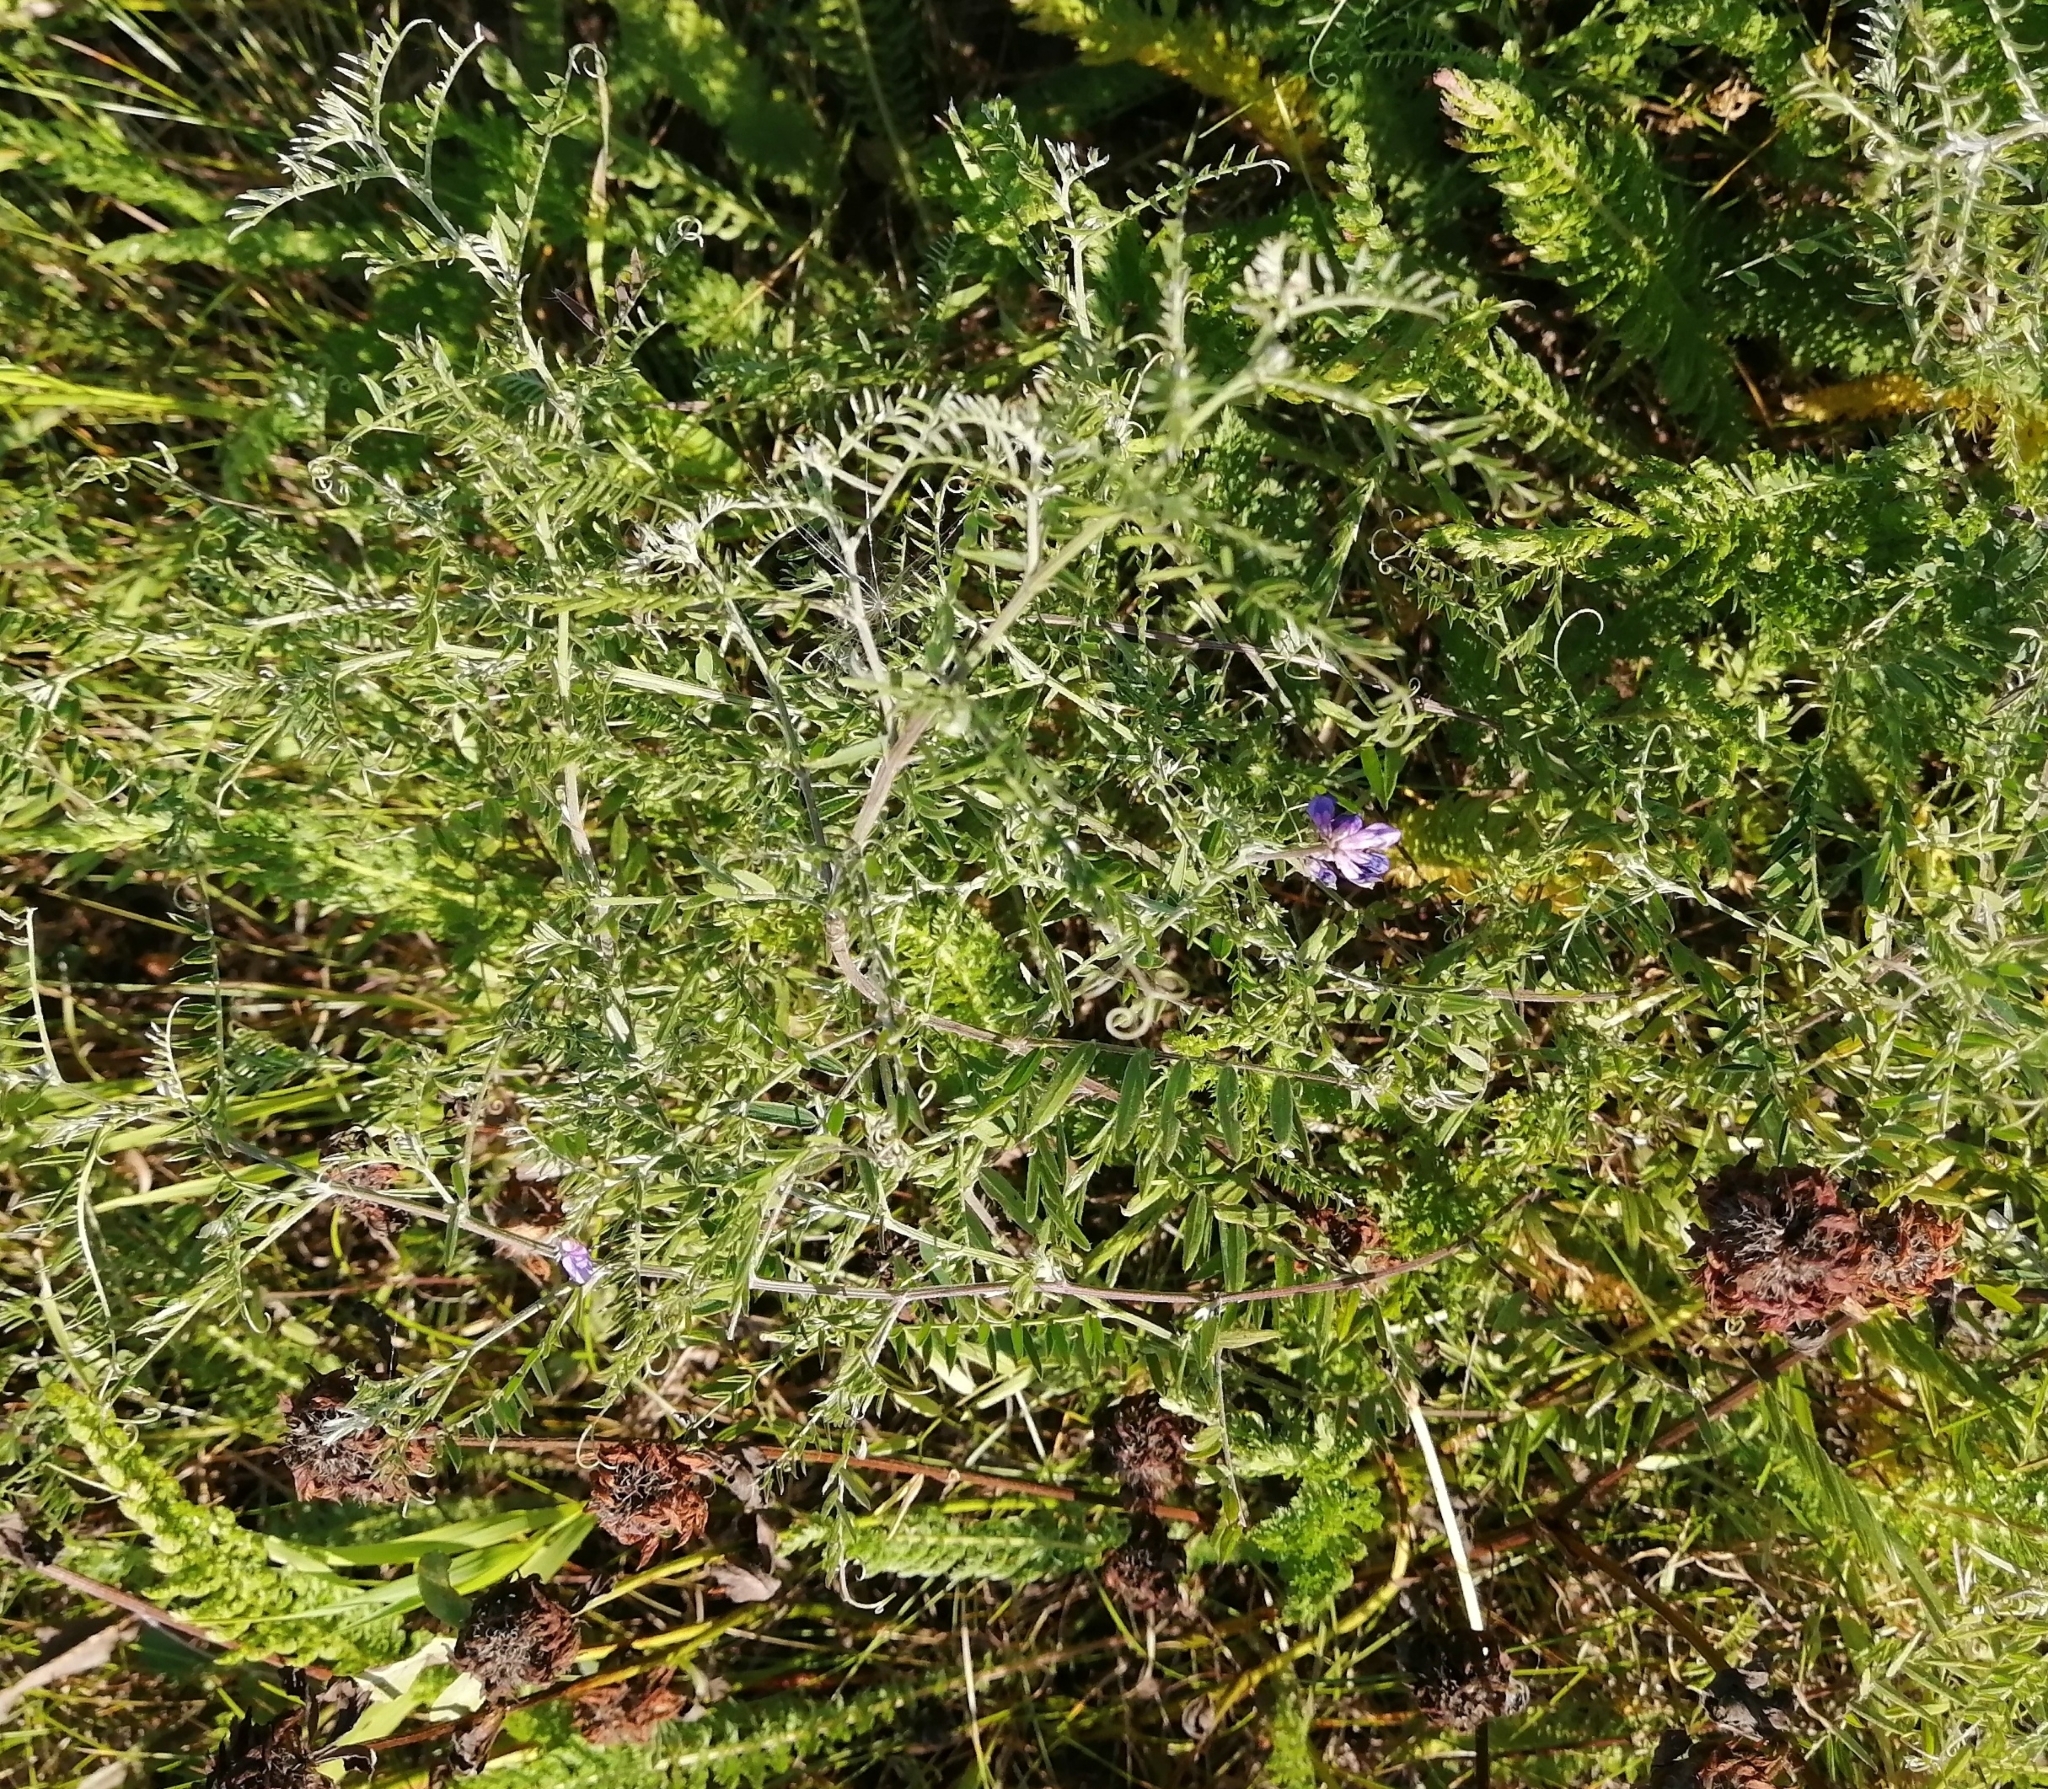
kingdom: Plantae
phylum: Tracheophyta
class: Magnoliopsida
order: Fabales
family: Fabaceae
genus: Vicia
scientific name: Vicia cracca
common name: Bird vetch
